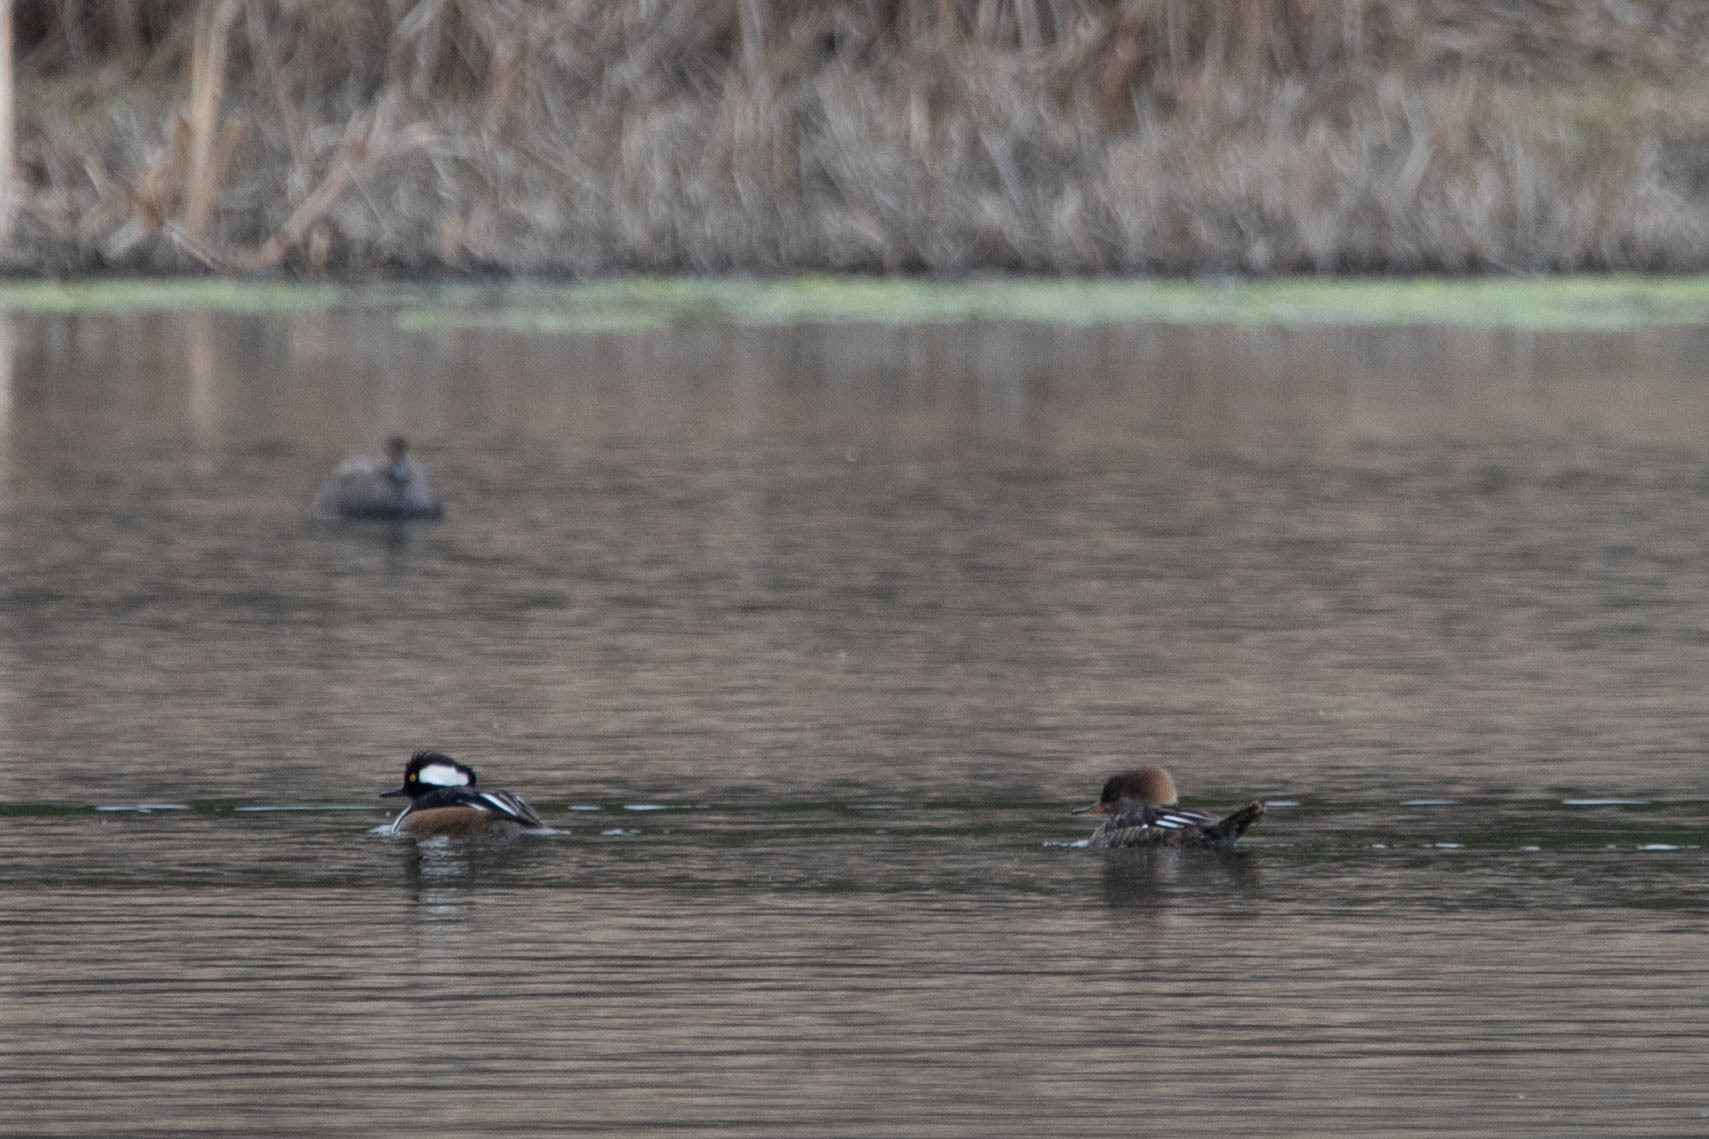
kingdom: Animalia
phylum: Chordata
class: Aves
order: Anseriformes
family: Anatidae
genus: Lophodytes
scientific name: Lophodytes cucullatus
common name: Hooded merganser
